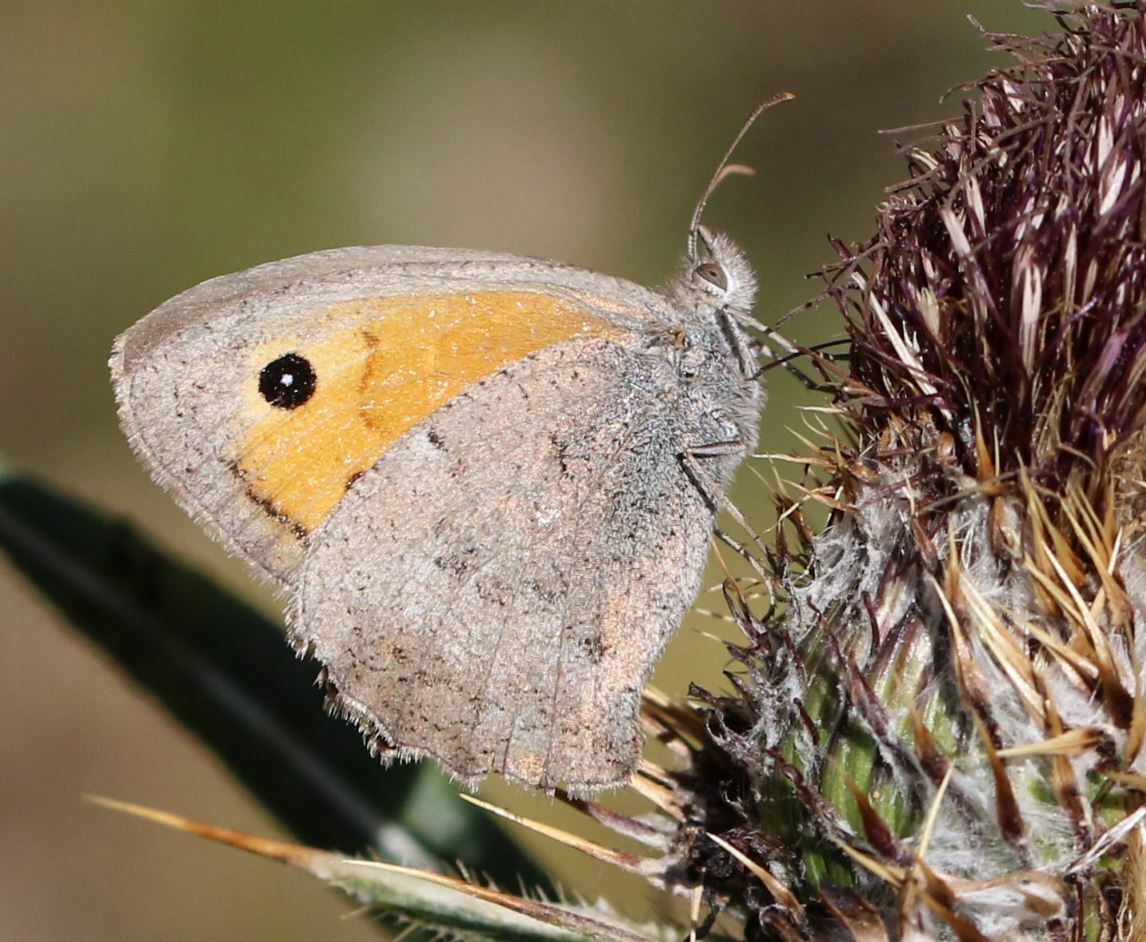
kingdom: Animalia
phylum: Arthropoda
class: Insecta
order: Lepidoptera
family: Nymphalidae
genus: Hyponephele
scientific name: Hyponephele lycaon
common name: Dusky meadow brown
